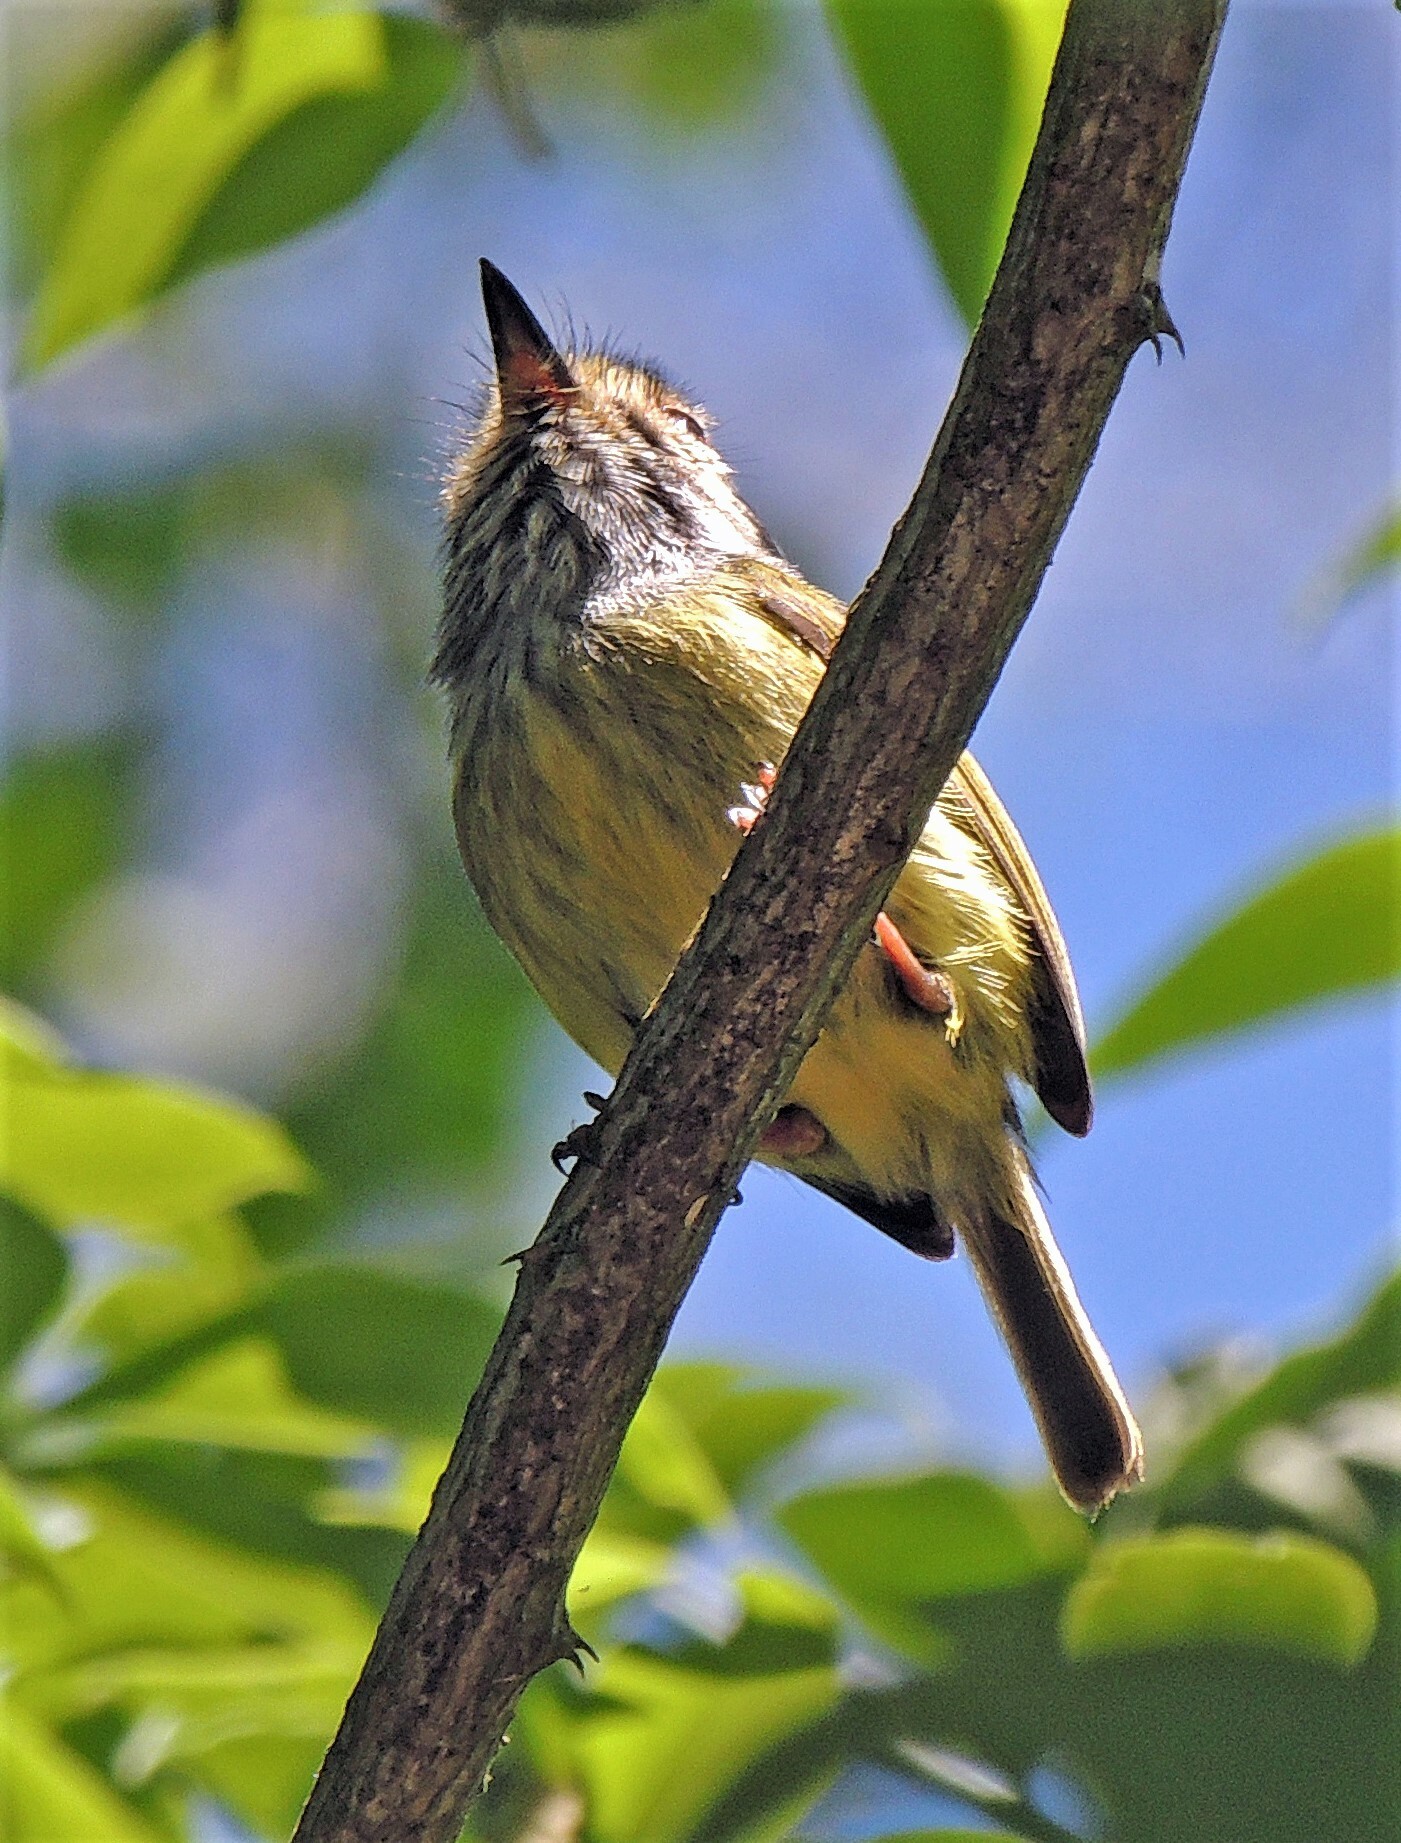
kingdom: Animalia
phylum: Chordata
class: Aves
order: Passeriformes
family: Tyrannidae
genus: Myiornis
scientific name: Myiornis auricularis
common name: Eared pygmy tyrant
